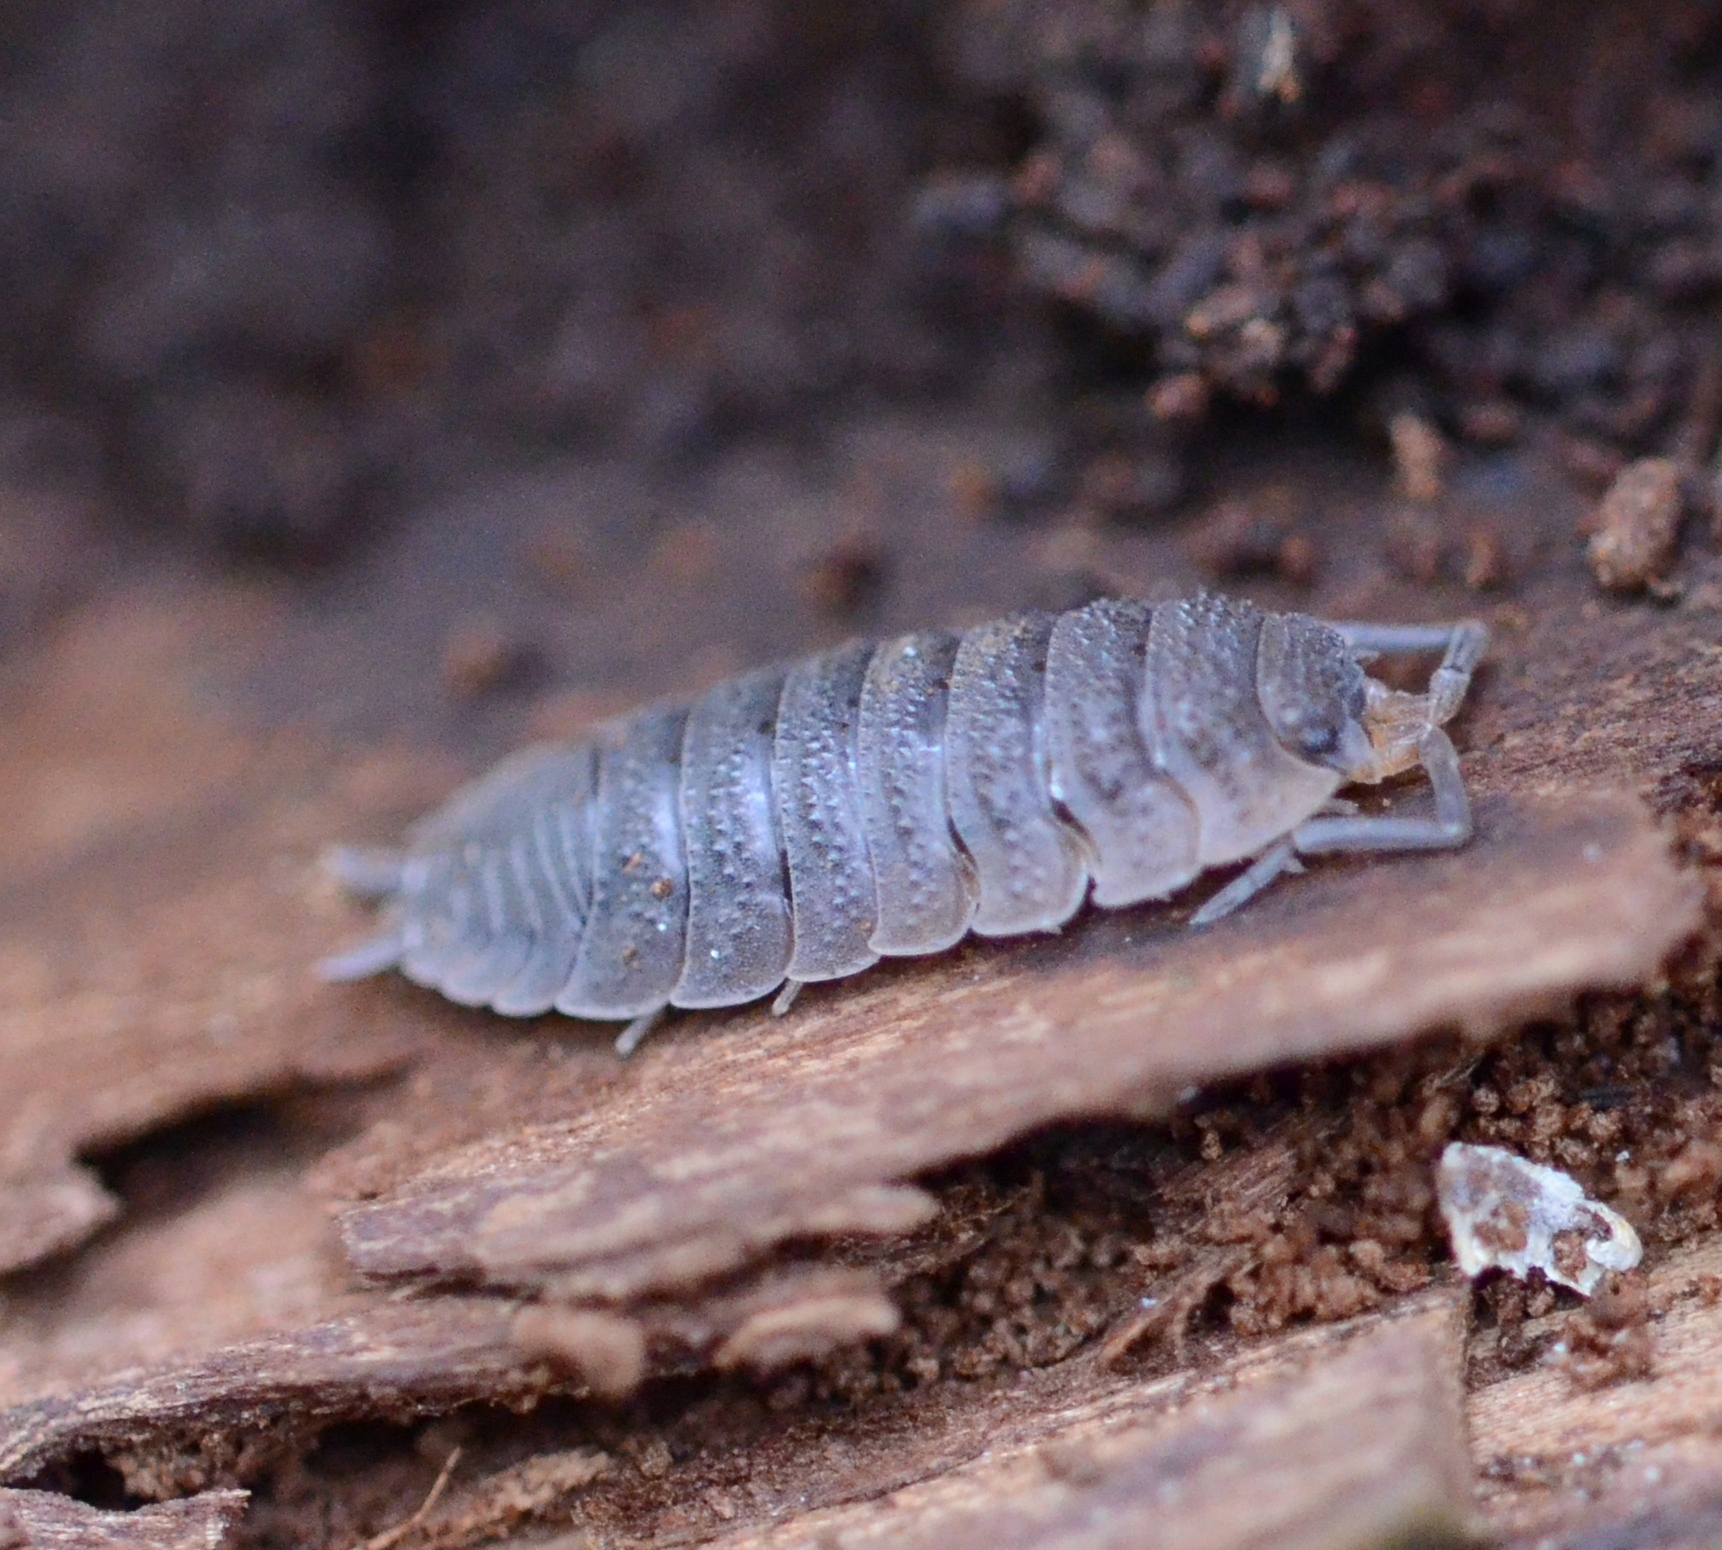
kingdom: Animalia
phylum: Arthropoda
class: Malacostraca
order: Isopoda
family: Porcellionidae
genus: Porcellio
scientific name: Porcellio scaber
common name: Common rough woodlouse
